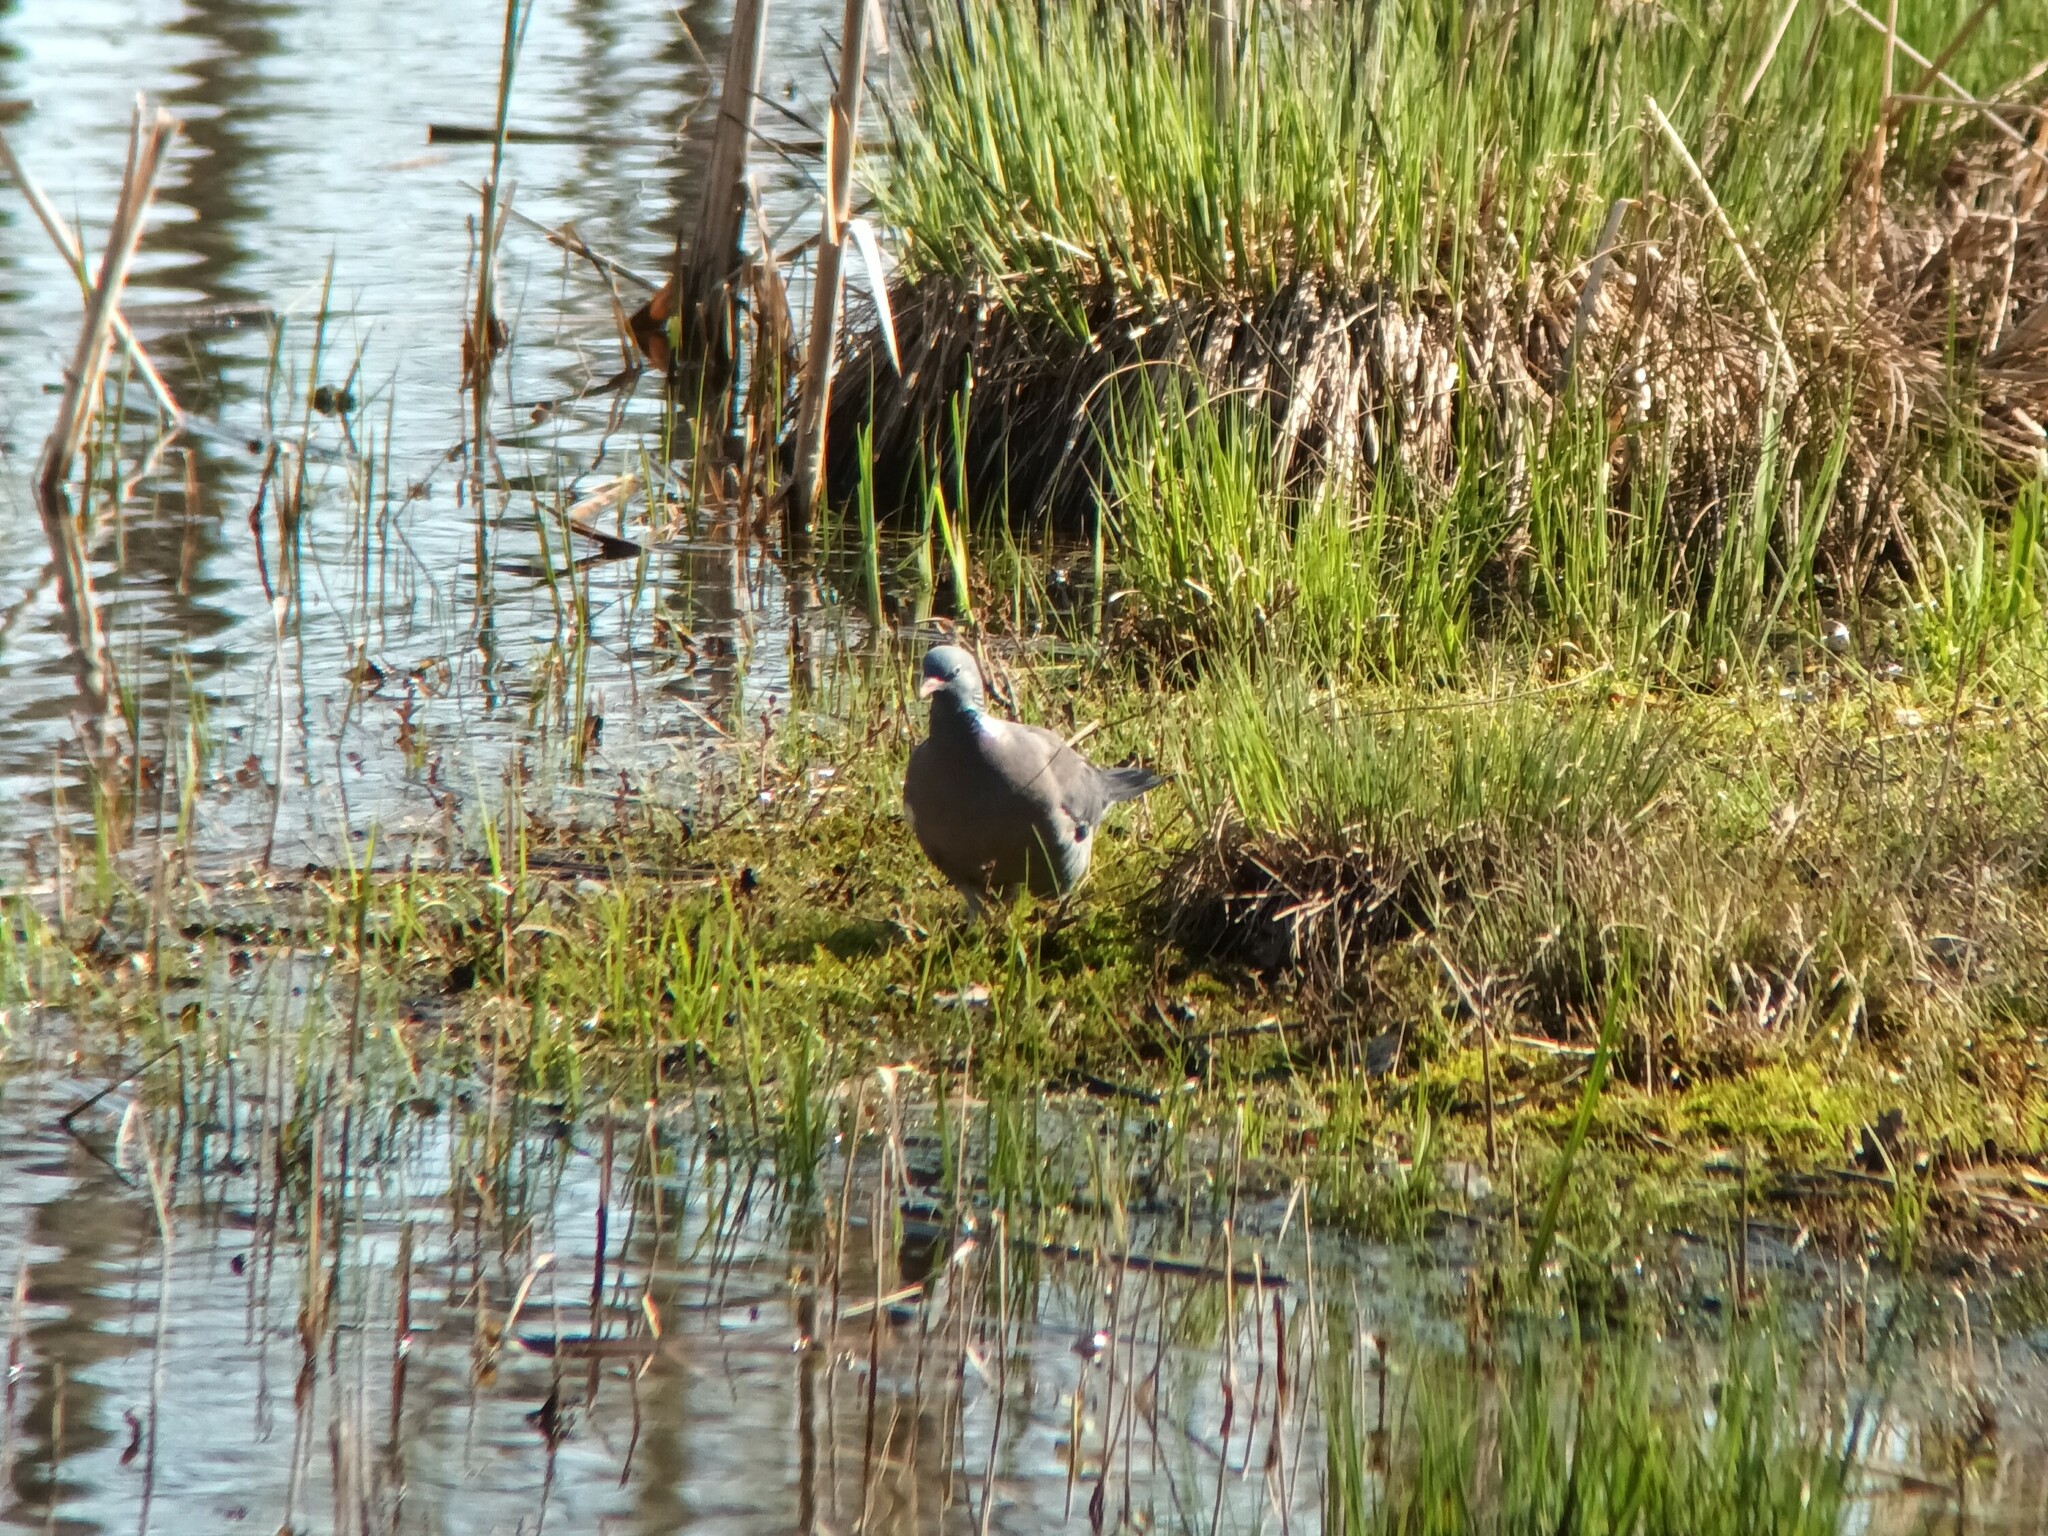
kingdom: Animalia
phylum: Chordata
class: Aves
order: Columbiformes
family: Columbidae
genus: Columba
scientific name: Columba palumbus
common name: Common wood pigeon
